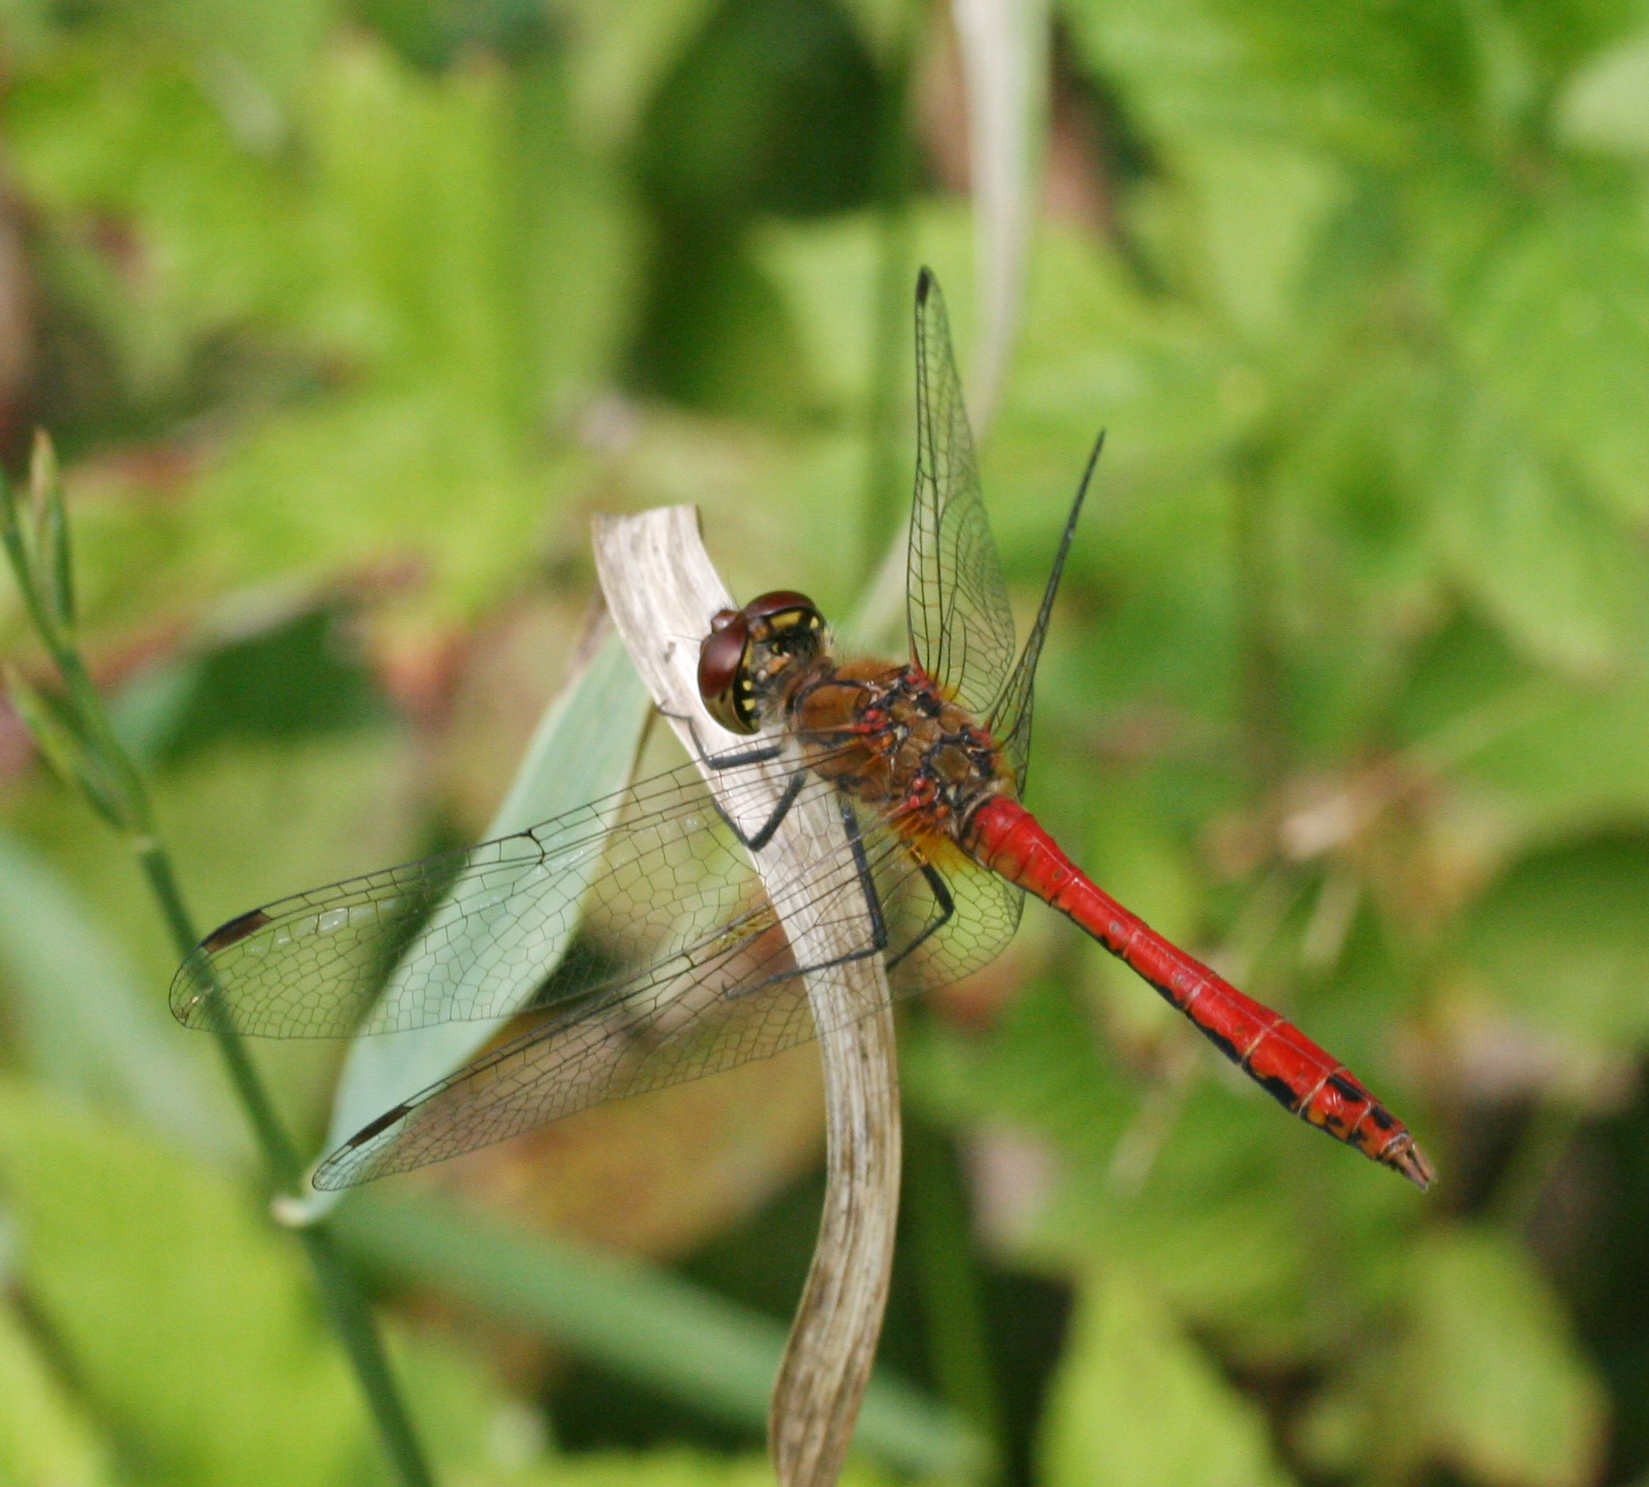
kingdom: Animalia
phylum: Arthropoda
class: Insecta
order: Odonata
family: Libellulidae
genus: Sympetrum
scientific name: Sympetrum sanguineum
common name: Ruddy darter
